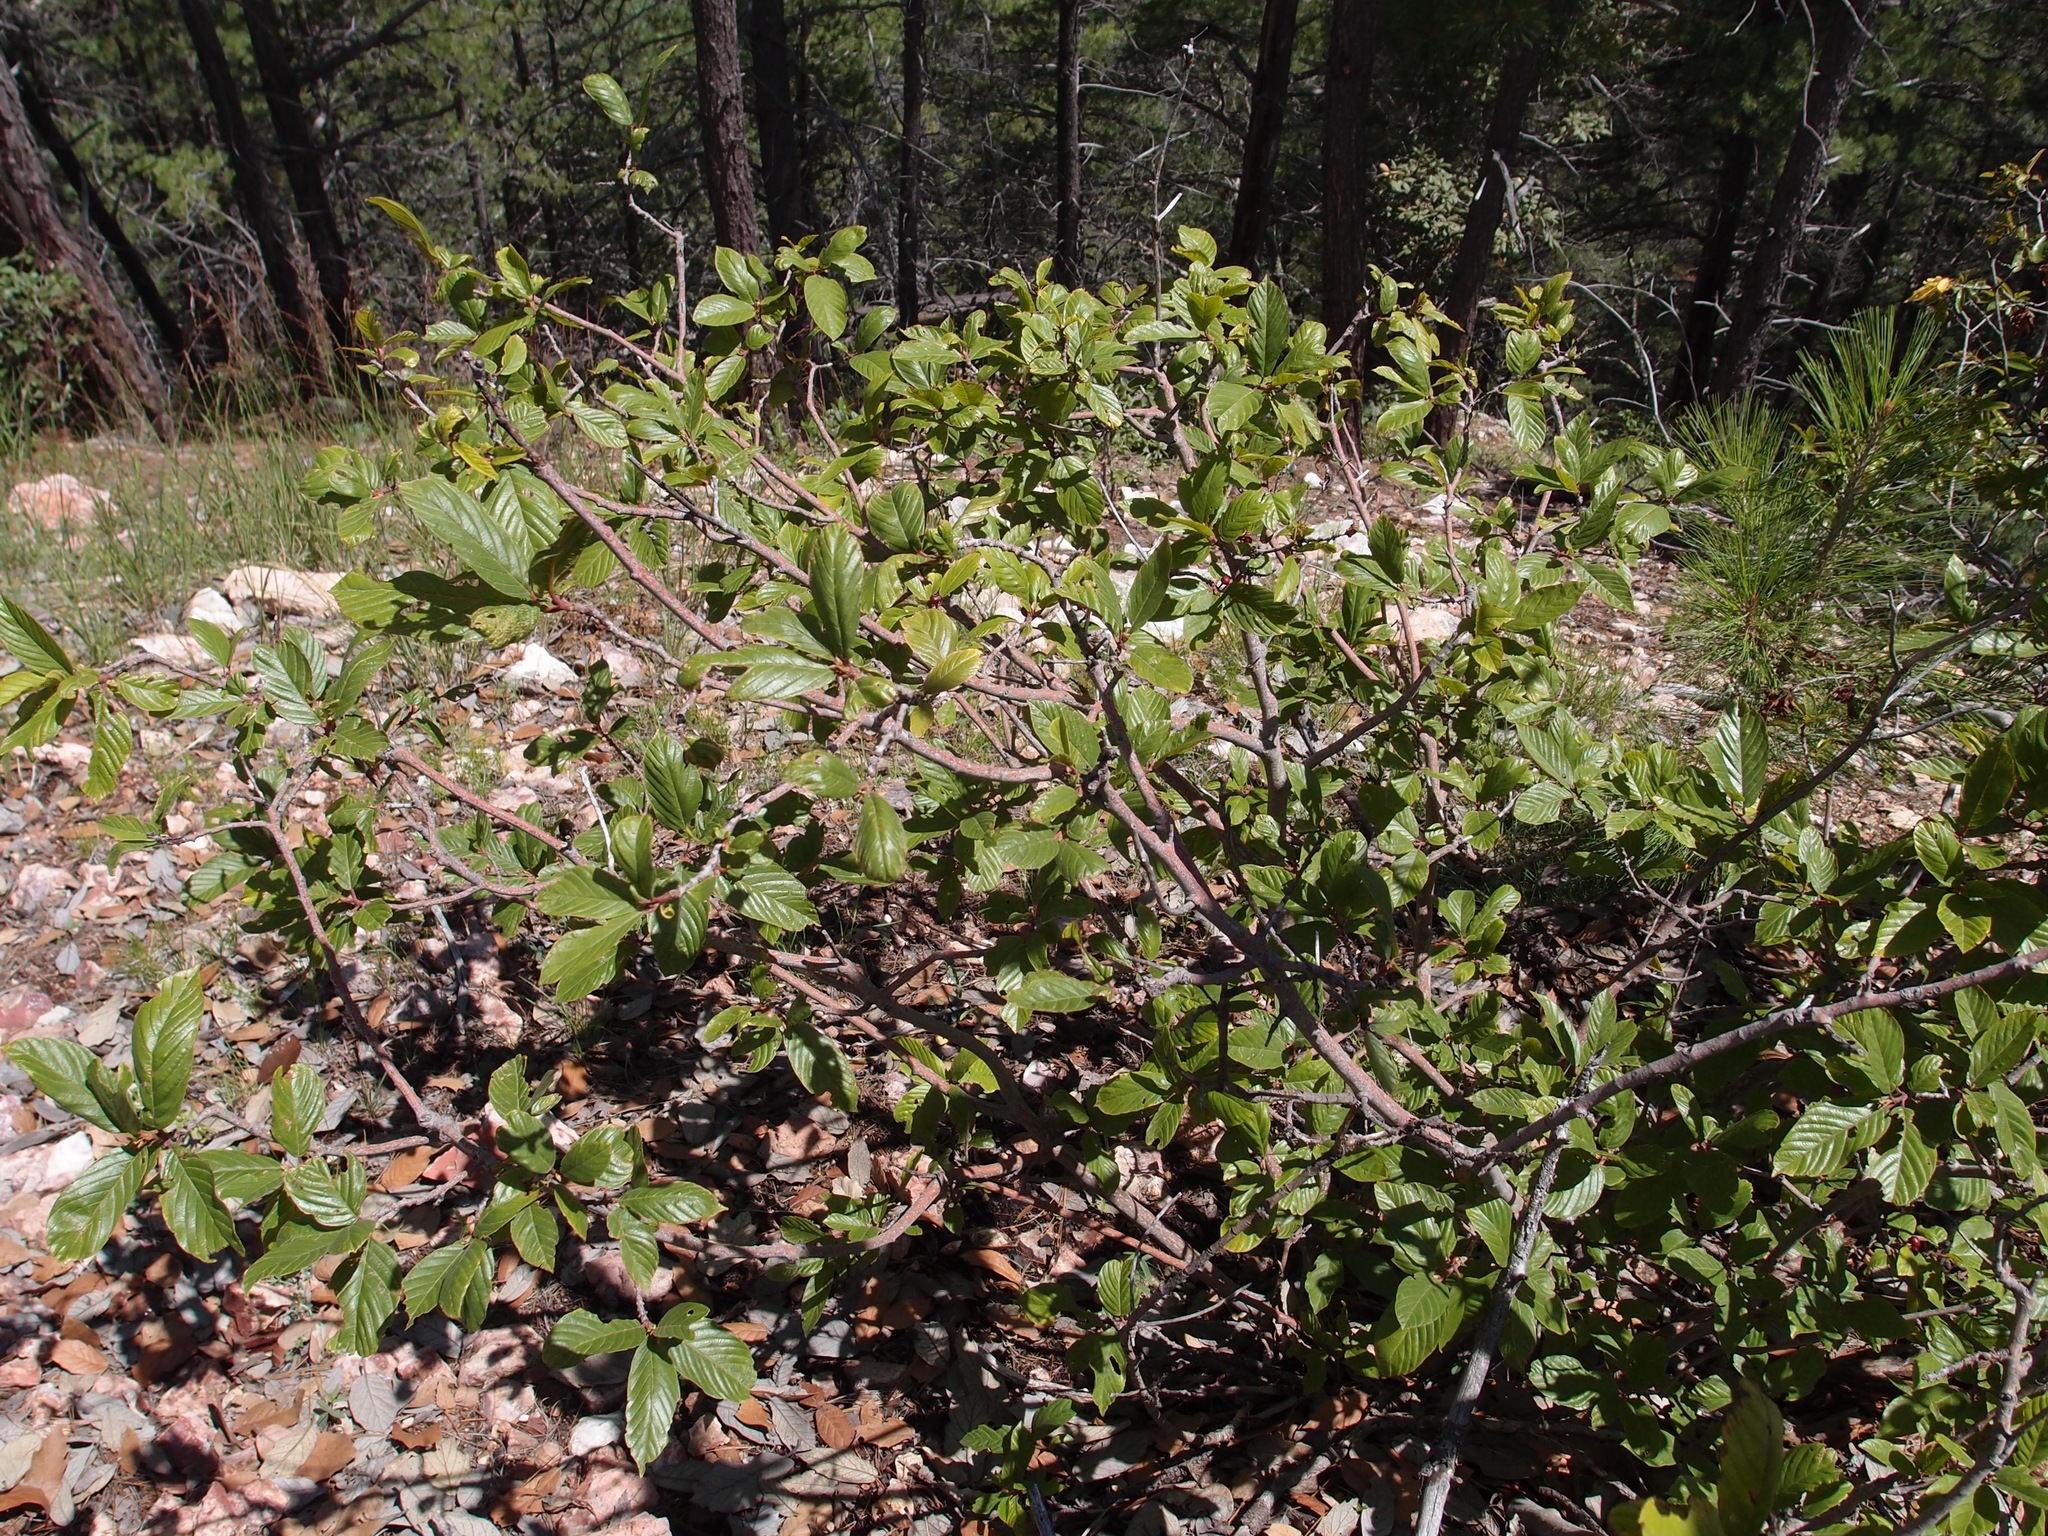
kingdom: Plantae
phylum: Tracheophyta
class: Magnoliopsida
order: Rosales
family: Rhamnaceae
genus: Frangula
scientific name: Frangula betulifolia
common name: Birch-leaf buckthorn
